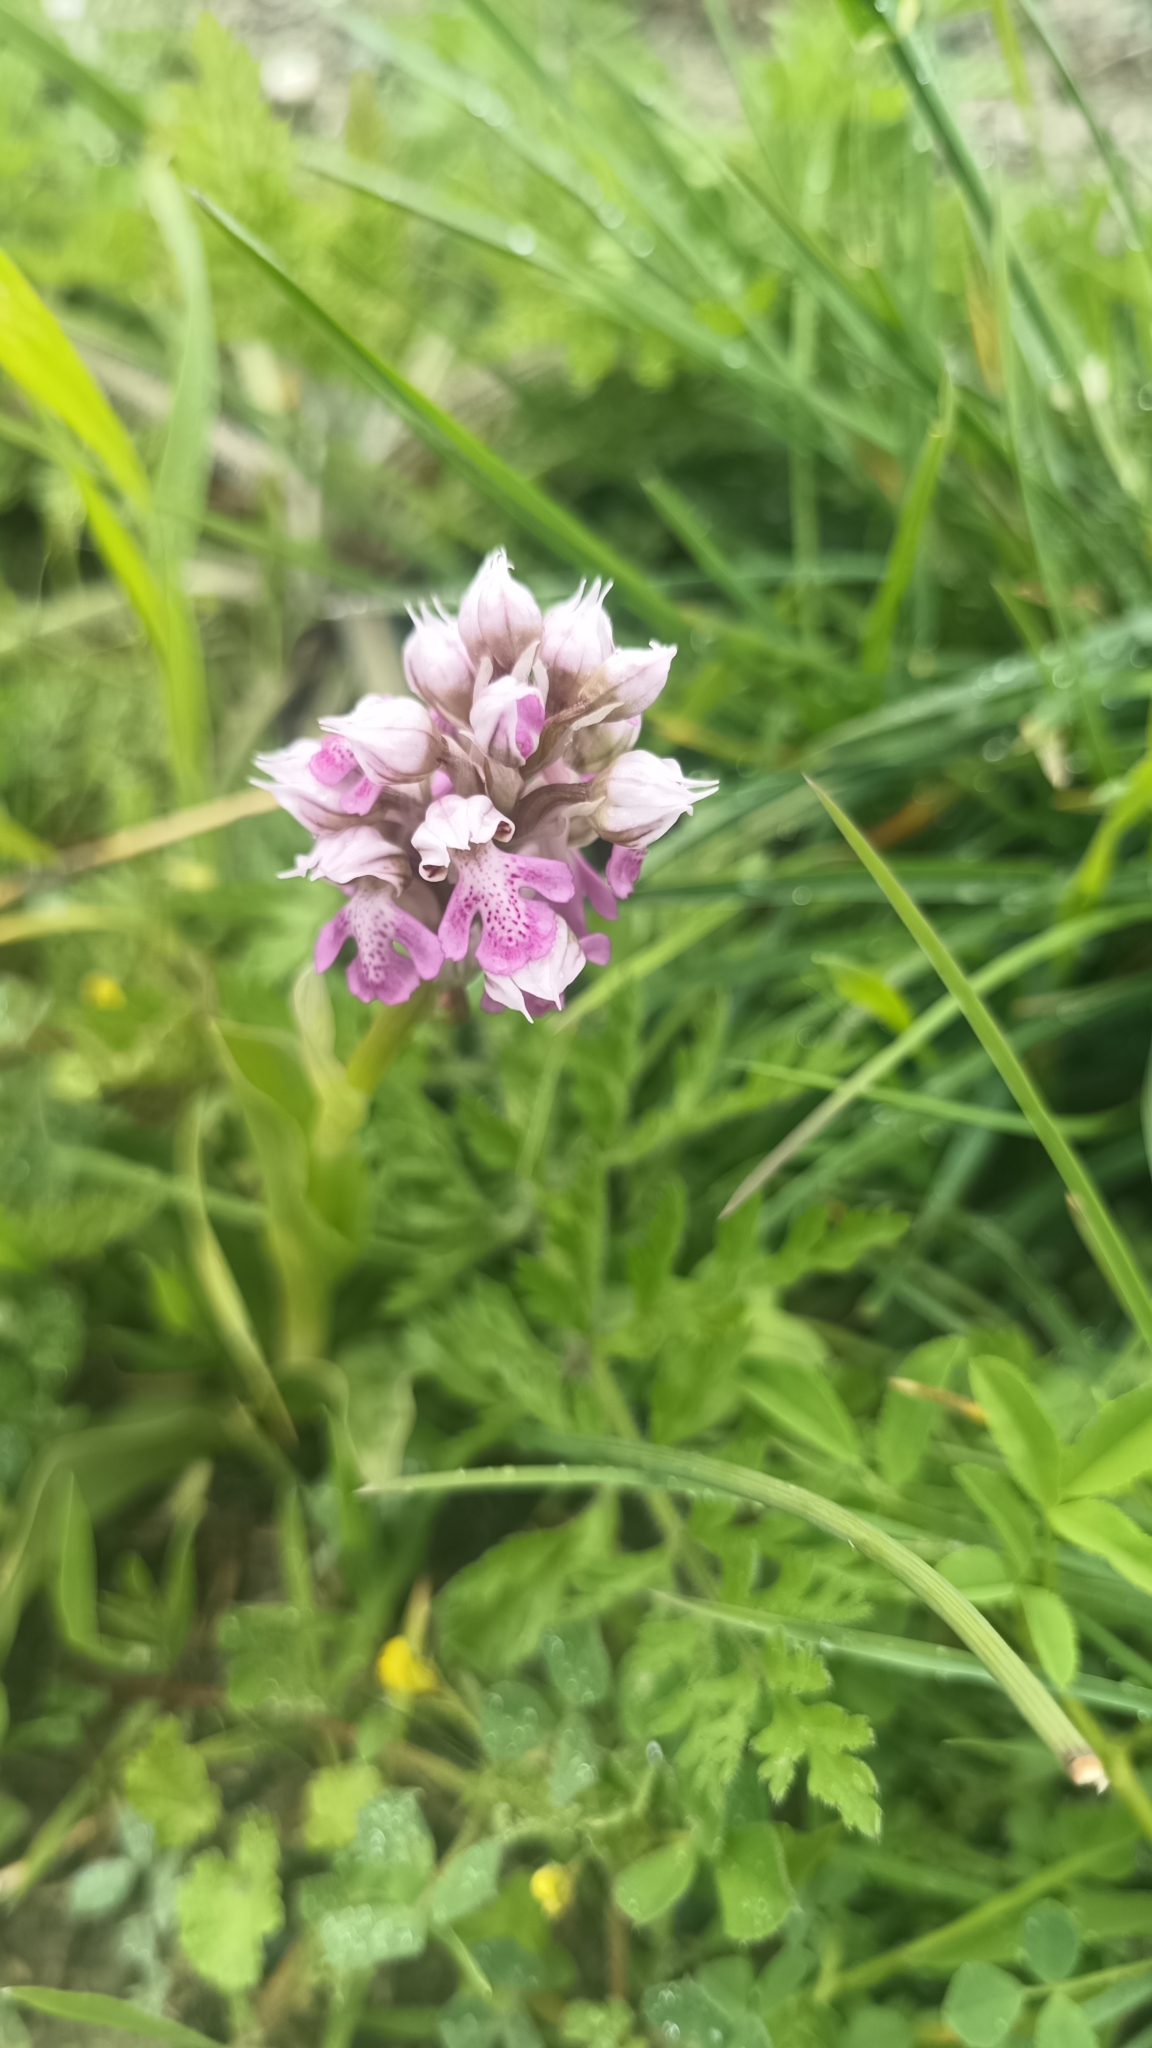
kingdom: Plantae
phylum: Tracheophyta
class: Liliopsida
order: Asparagales
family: Orchidaceae
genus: Neotinea
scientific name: Neotinea lactea
